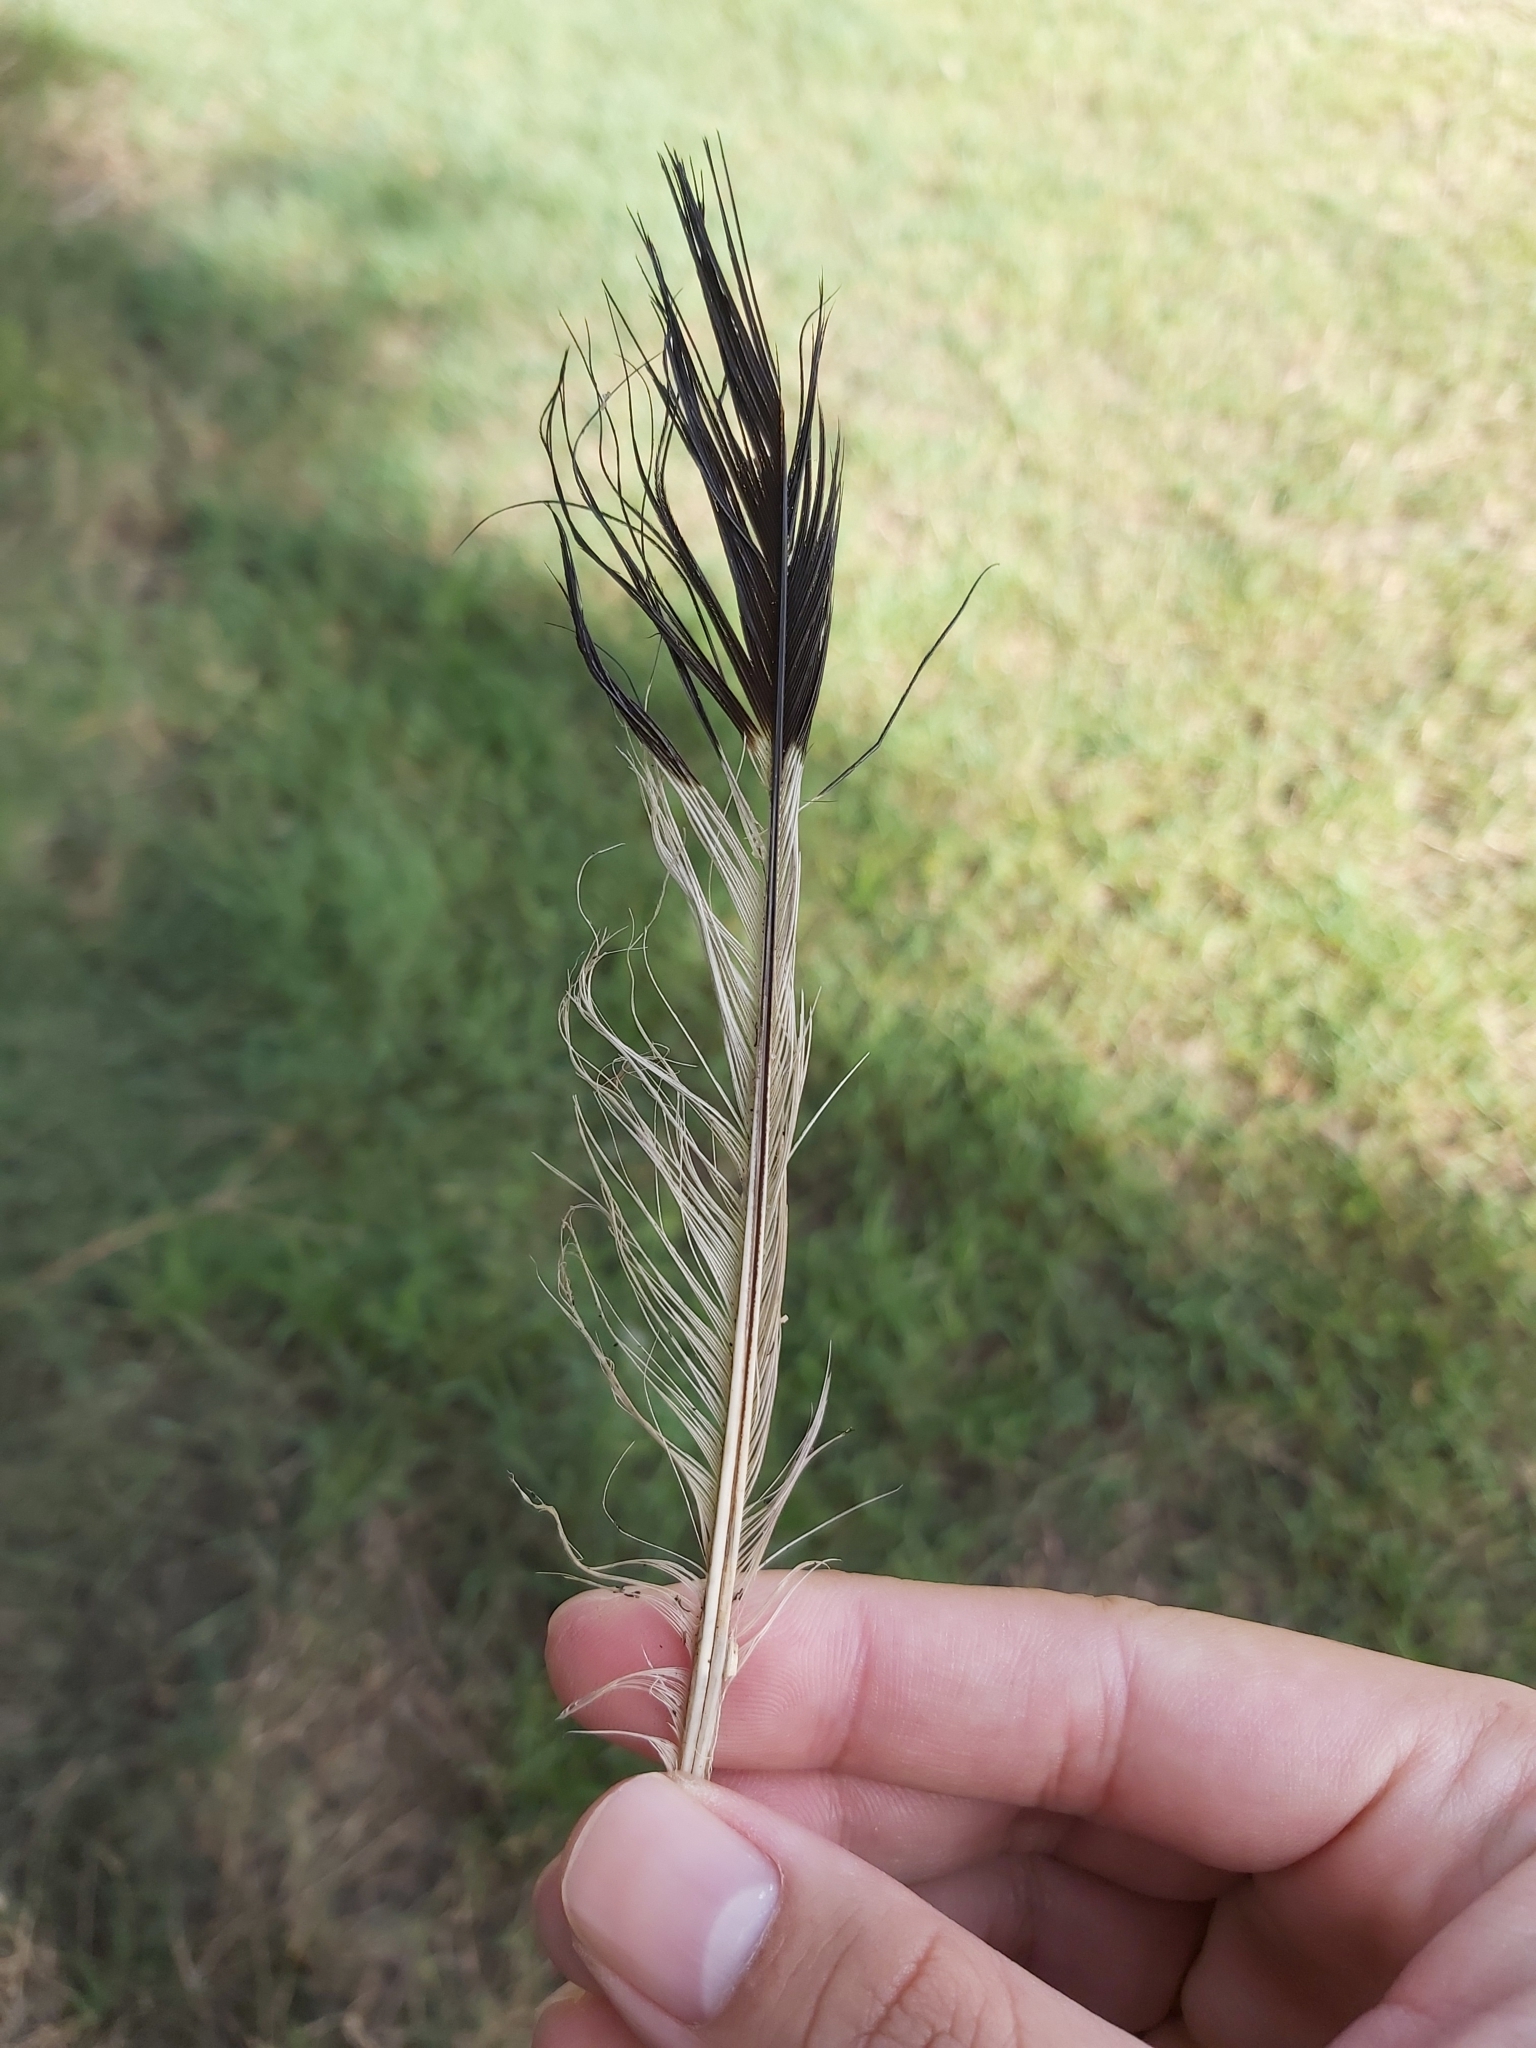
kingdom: Animalia
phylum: Chordata
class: Aves
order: Passeriformes
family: Cracticidae
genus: Gymnorhina
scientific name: Gymnorhina tibicen
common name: Australian magpie
